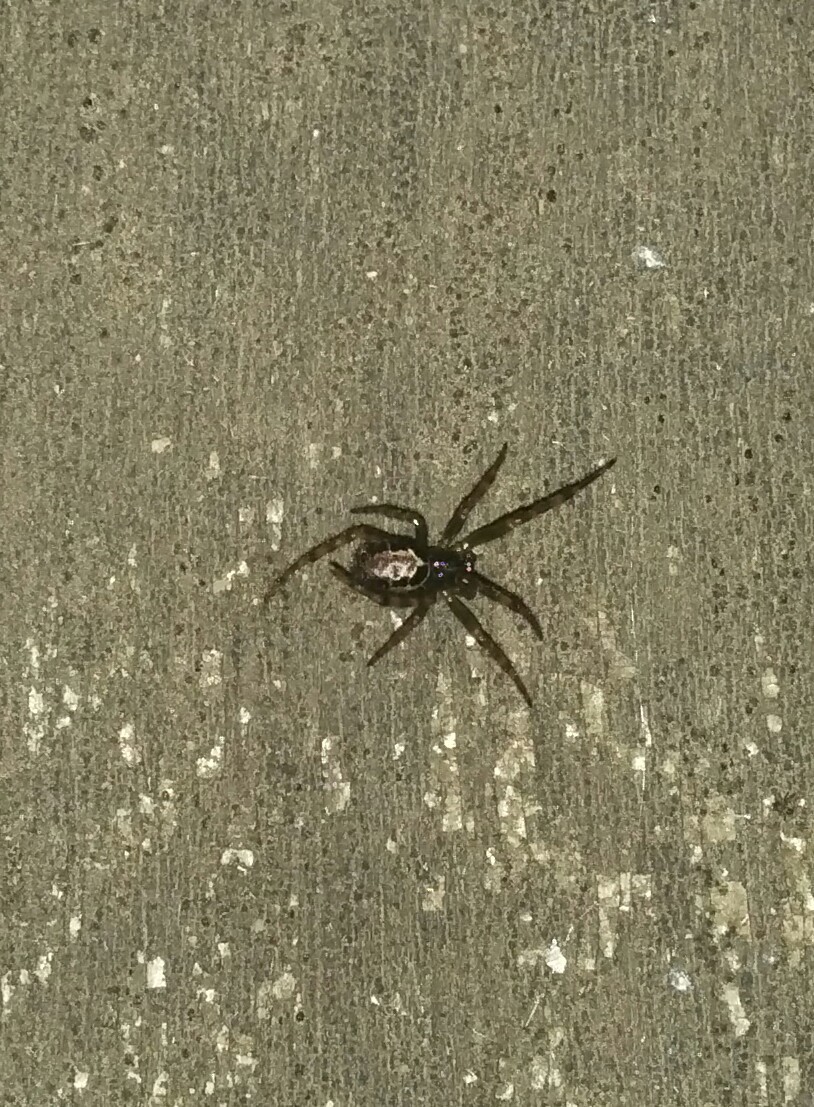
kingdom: Animalia
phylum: Arthropoda
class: Arachnida
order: Araneae
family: Theridiidae
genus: Steatoda
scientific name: Steatoda nobilis
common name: Cobweb weaver
